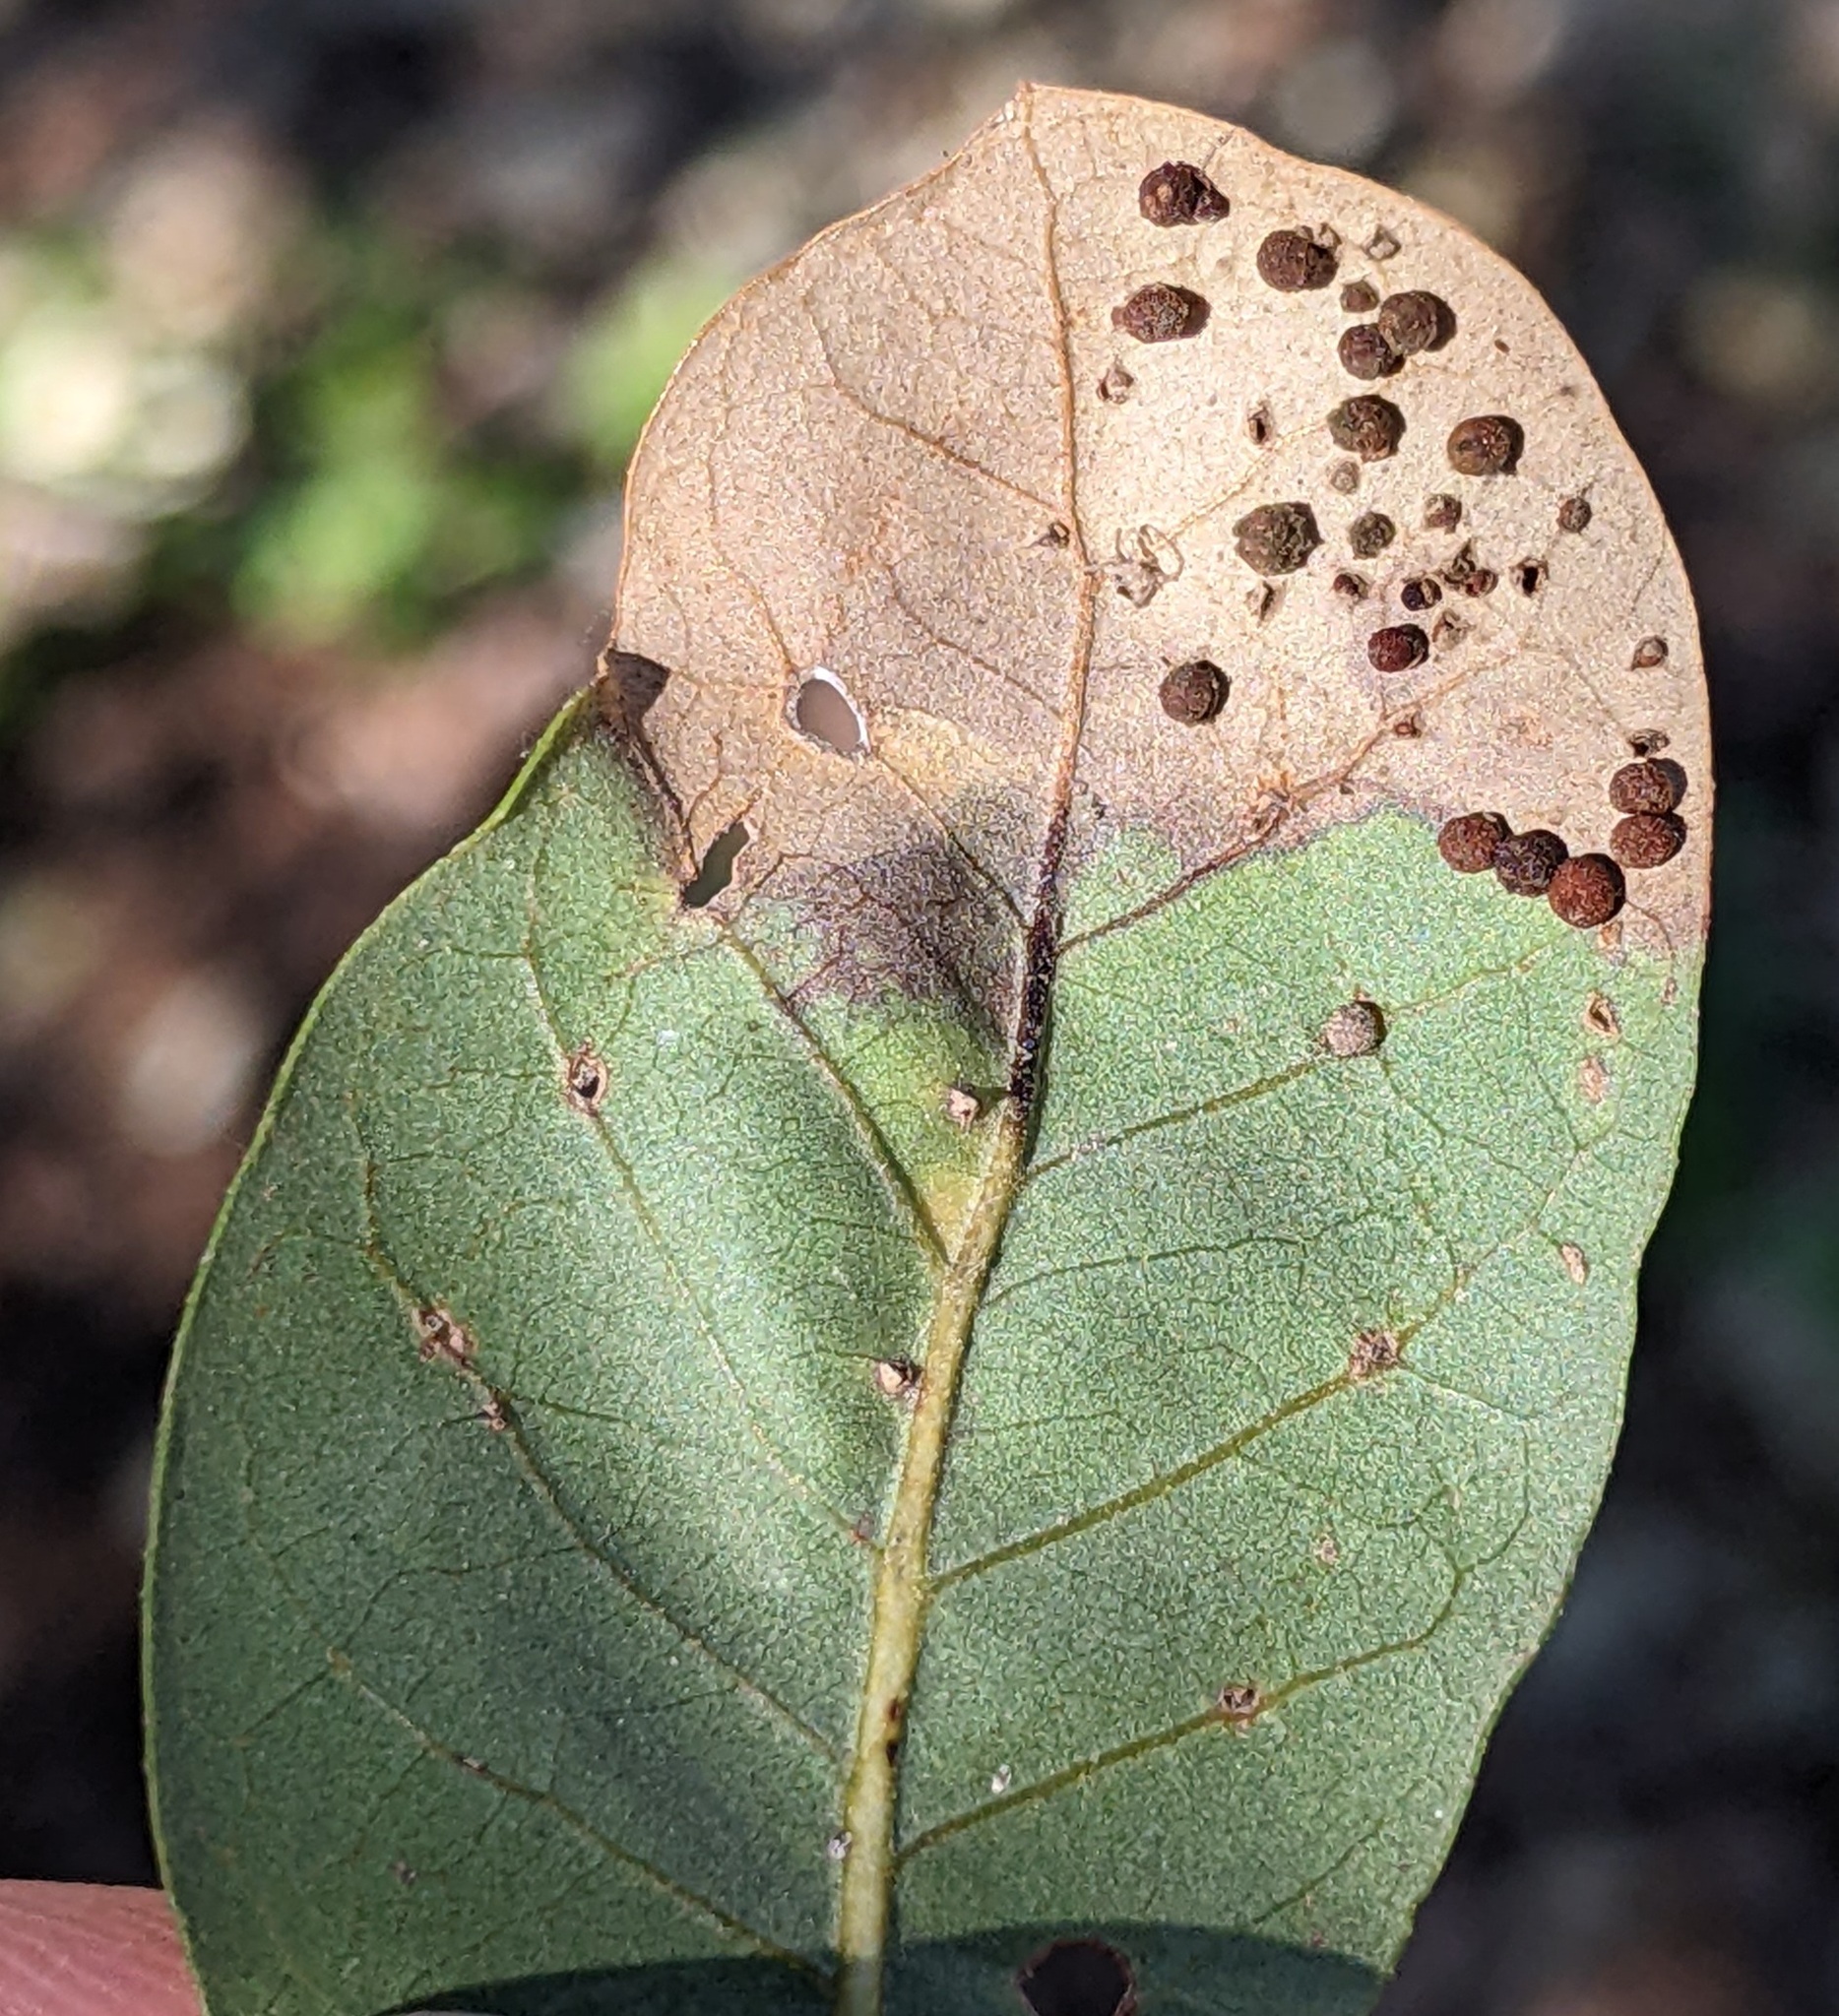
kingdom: Animalia
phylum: Arthropoda
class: Insecta
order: Hymenoptera
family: Cynipidae
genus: Neuroterus
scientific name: Neuroterus saltarius
